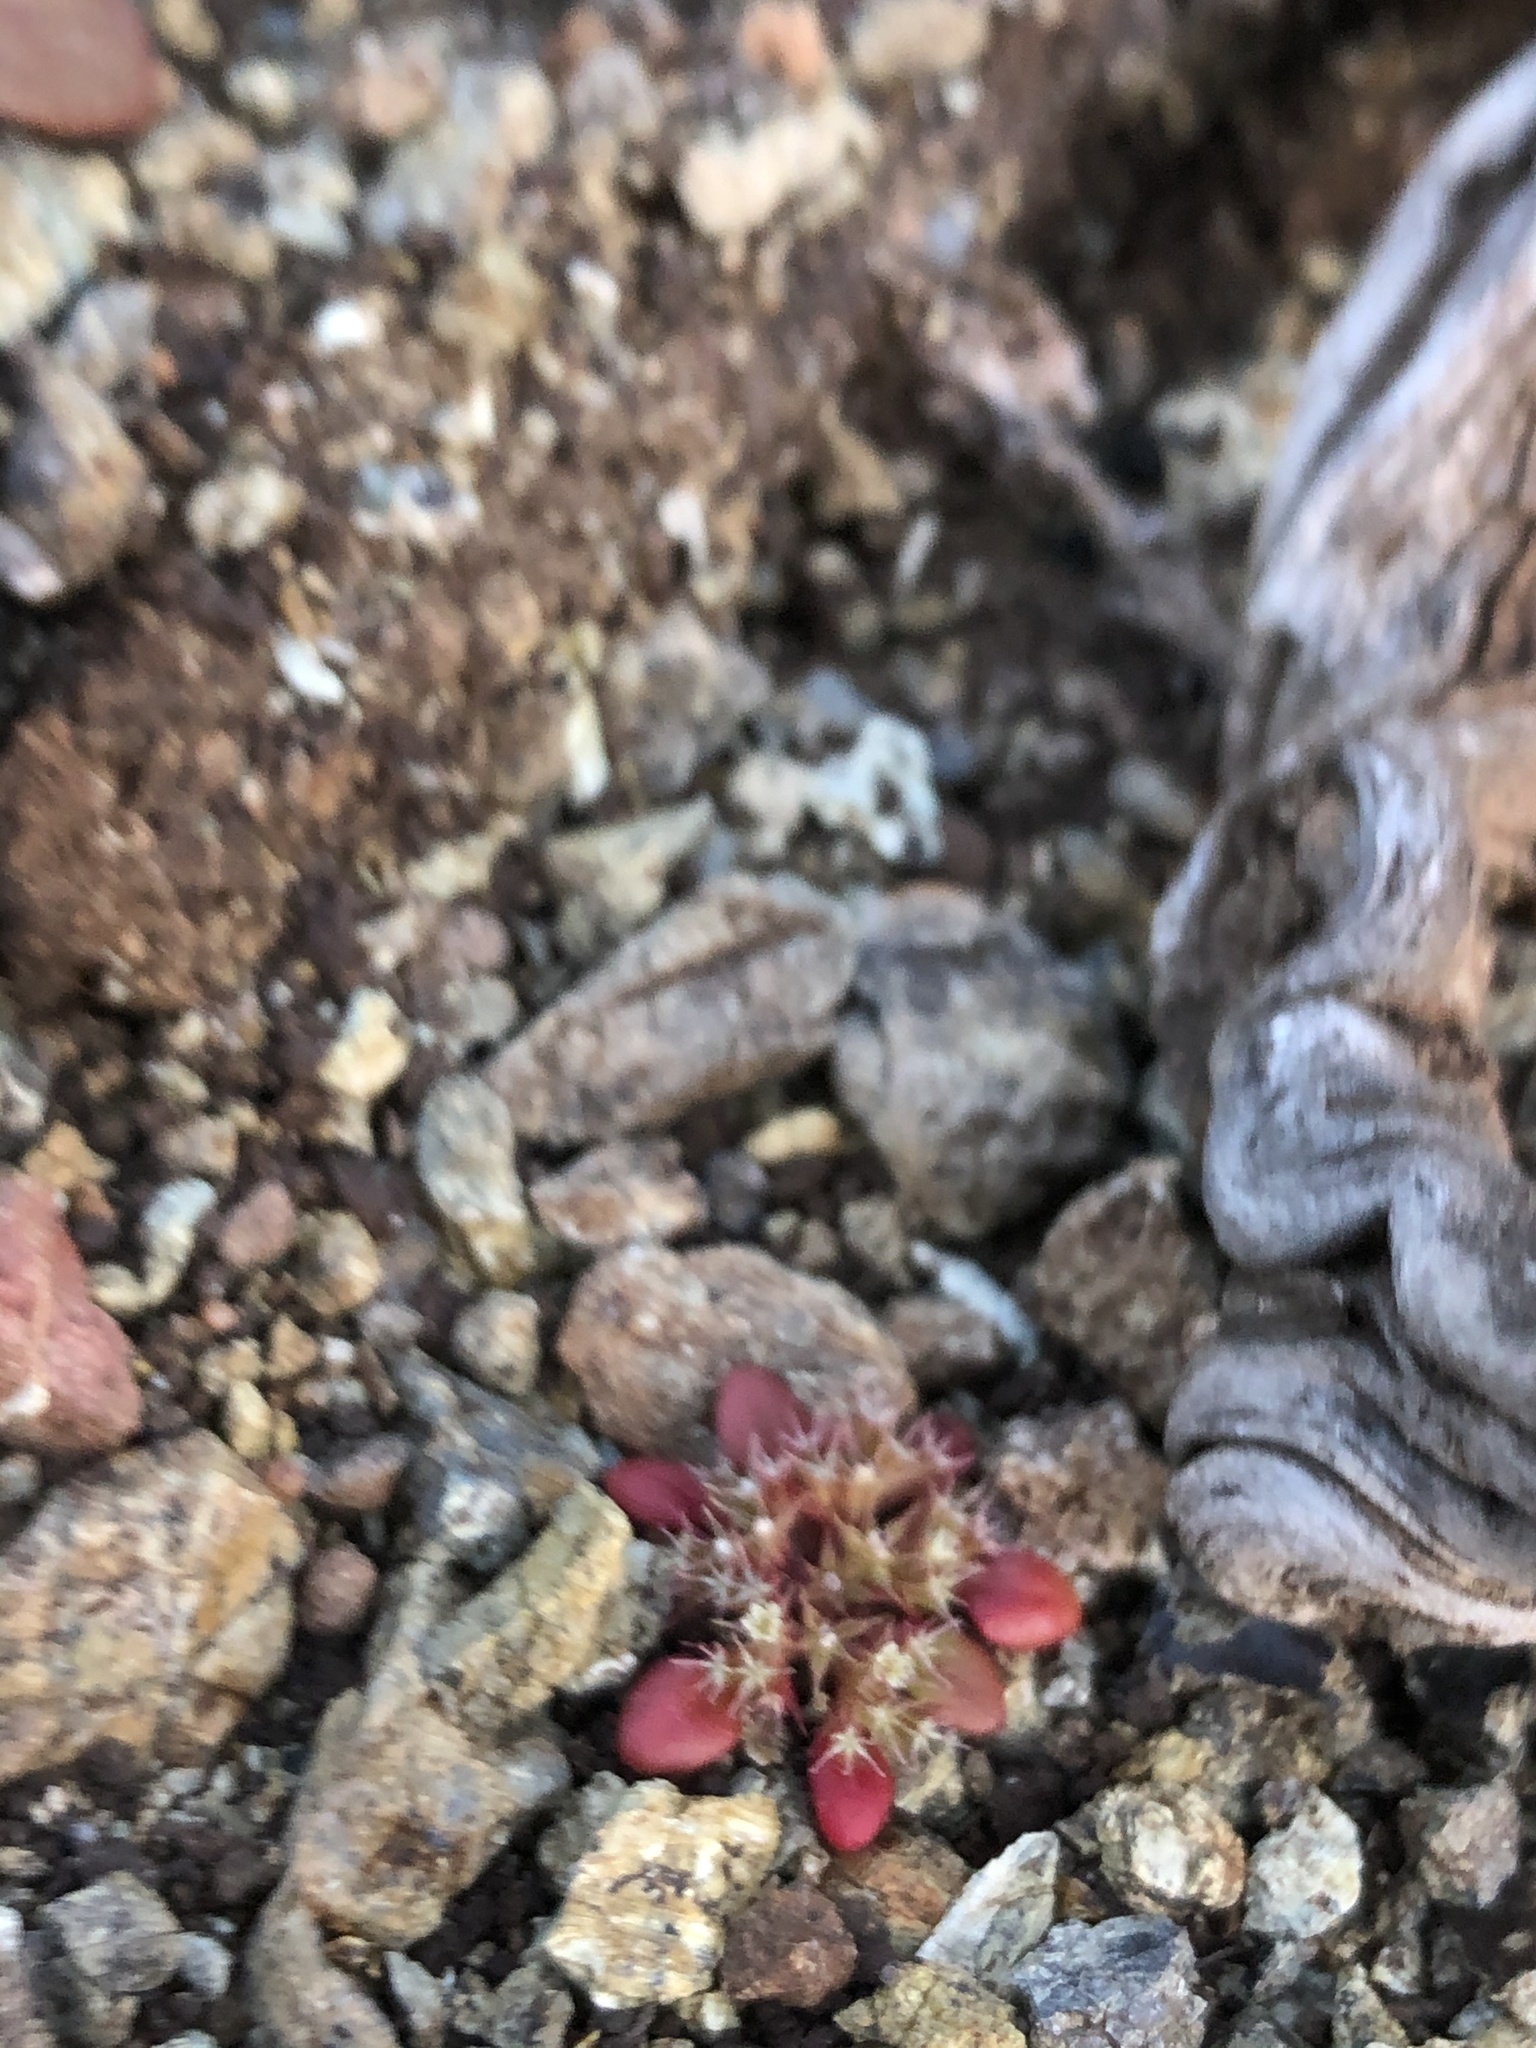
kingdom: Plantae
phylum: Tracheophyta
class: Magnoliopsida
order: Caryophyllales
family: Polygonaceae
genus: Chorizanthe
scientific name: Chorizanthe aphanantha
